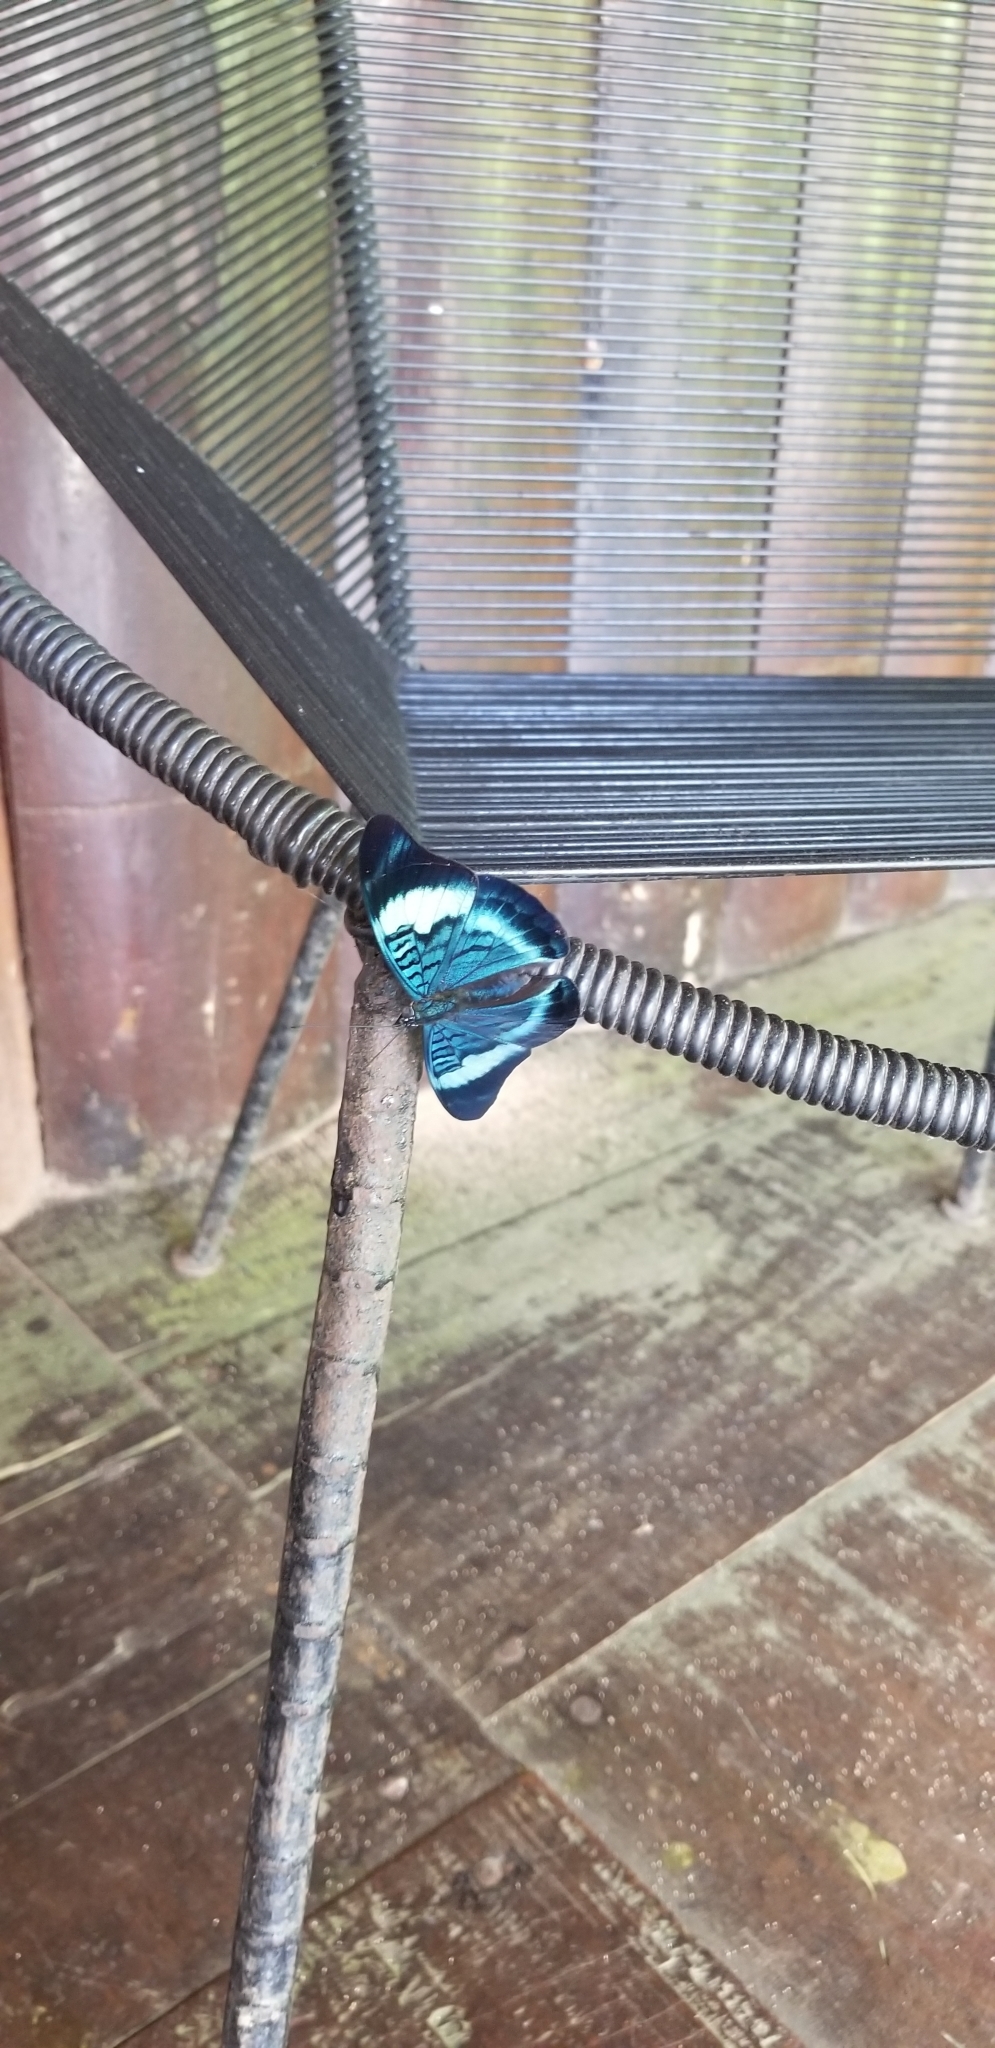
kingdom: Animalia
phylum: Arthropoda
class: Insecta
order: Lepidoptera
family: Nymphalidae
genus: Panacea
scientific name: Panacea prola
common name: Red flasher
